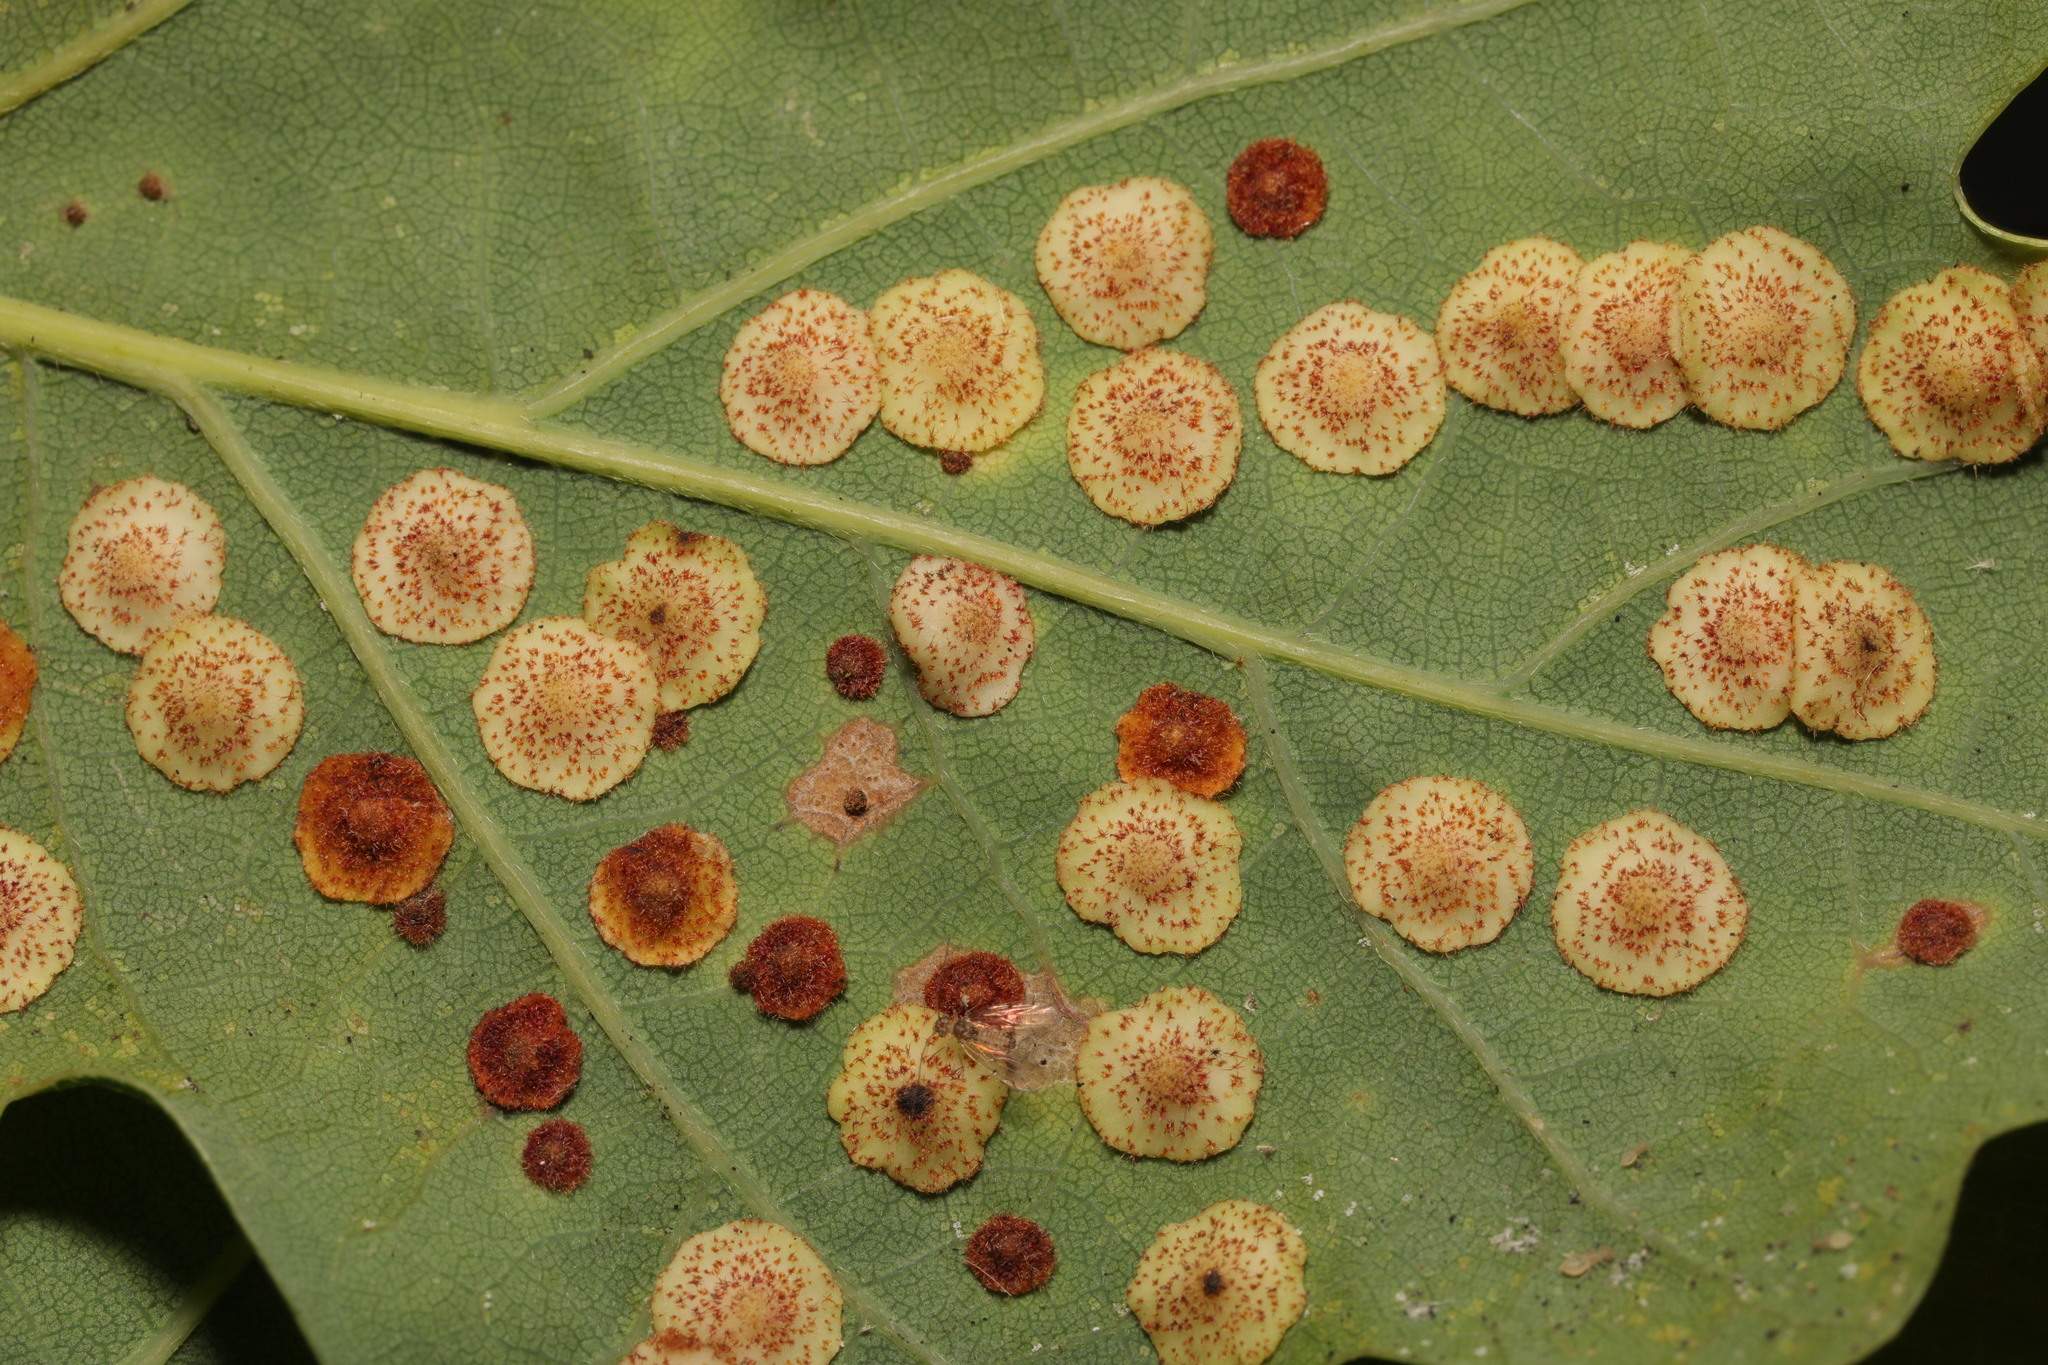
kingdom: Animalia
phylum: Arthropoda
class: Insecta
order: Hymenoptera
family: Cynipidae
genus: Neuroterus
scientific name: Neuroterus quercusbaccarum
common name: Common spangle gall
